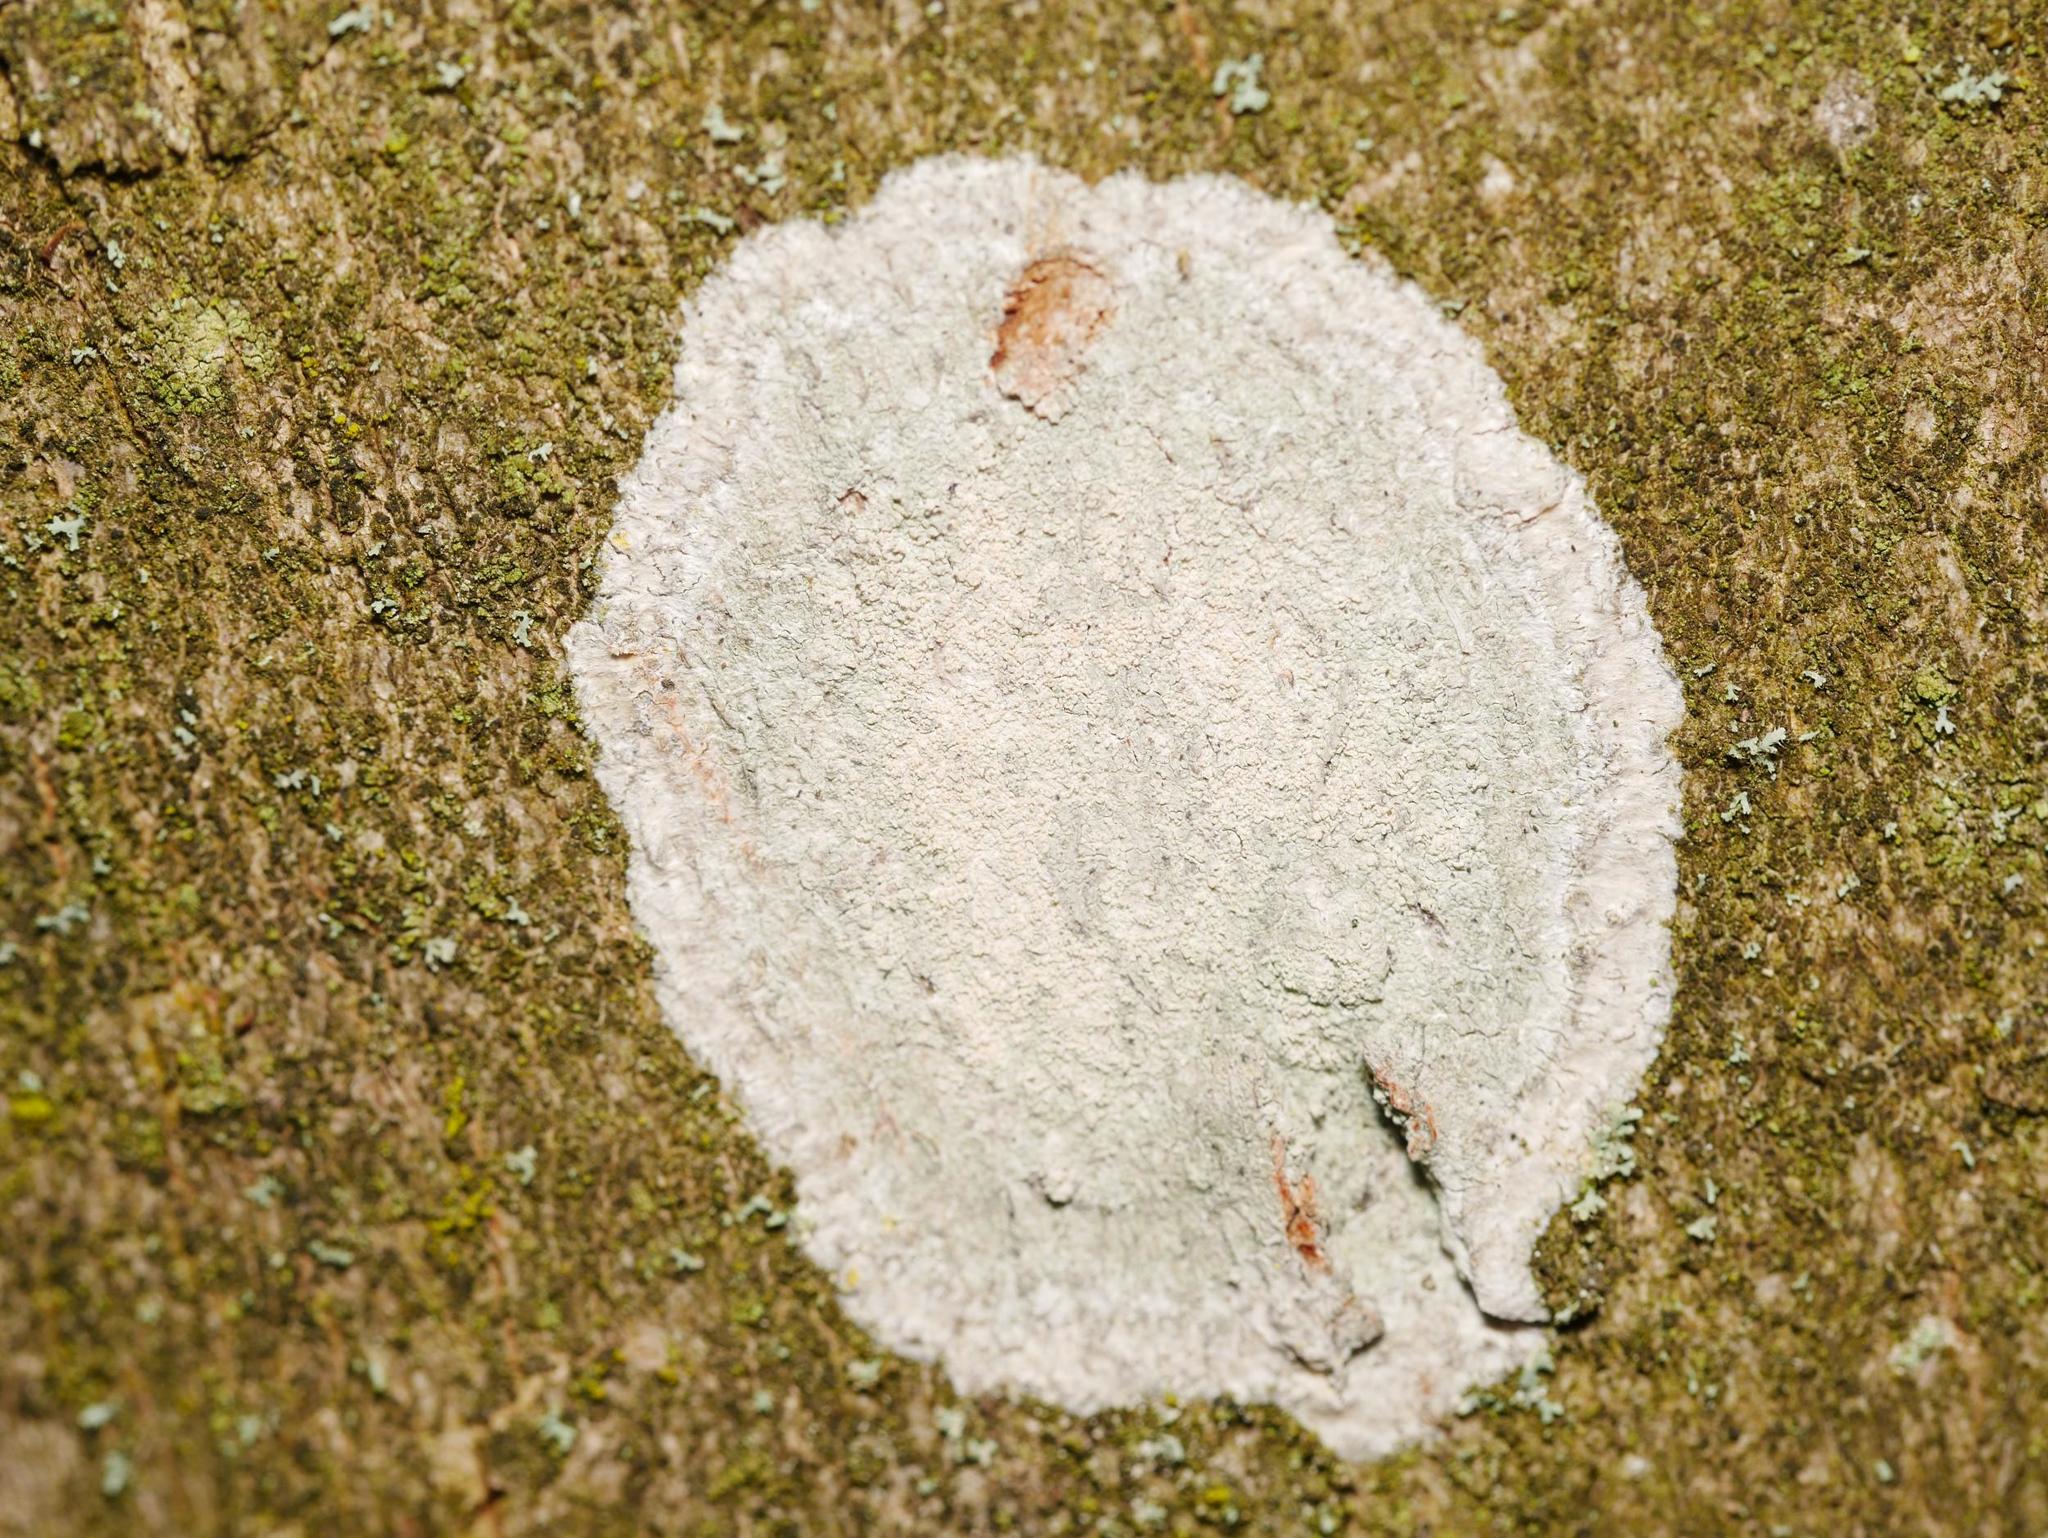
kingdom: Fungi
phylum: Ascomycota
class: Lecanoromycetes
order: Ostropales
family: Phlyctidaceae
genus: Phlyctis
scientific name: Phlyctis argena
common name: Whitewash lichen
